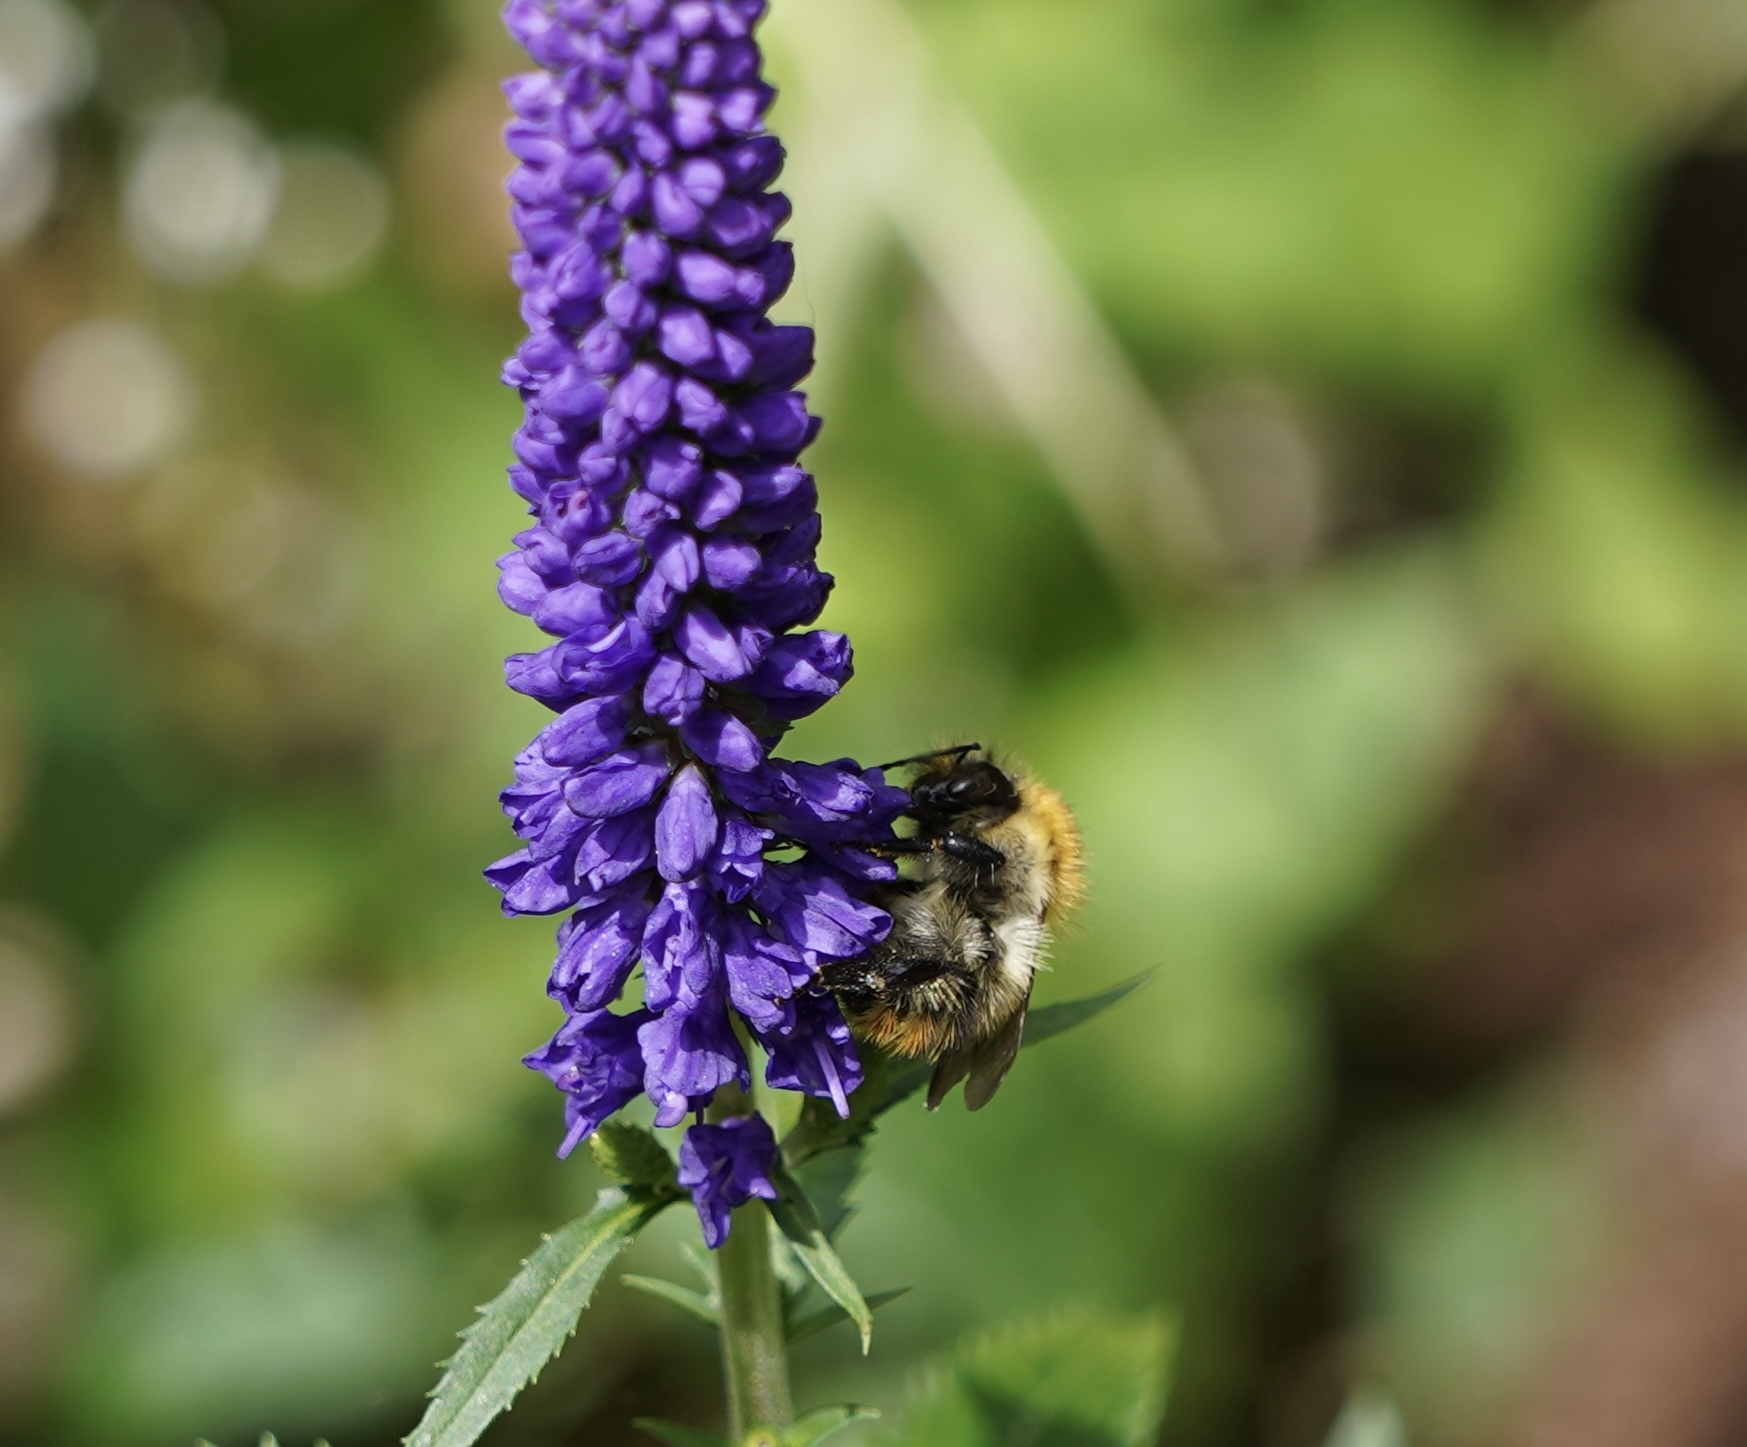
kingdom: Animalia
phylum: Arthropoda
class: Insecta
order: Hymenoptera
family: Apidae
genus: Bombus
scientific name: Bombus pascuorum
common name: Common carder bee
